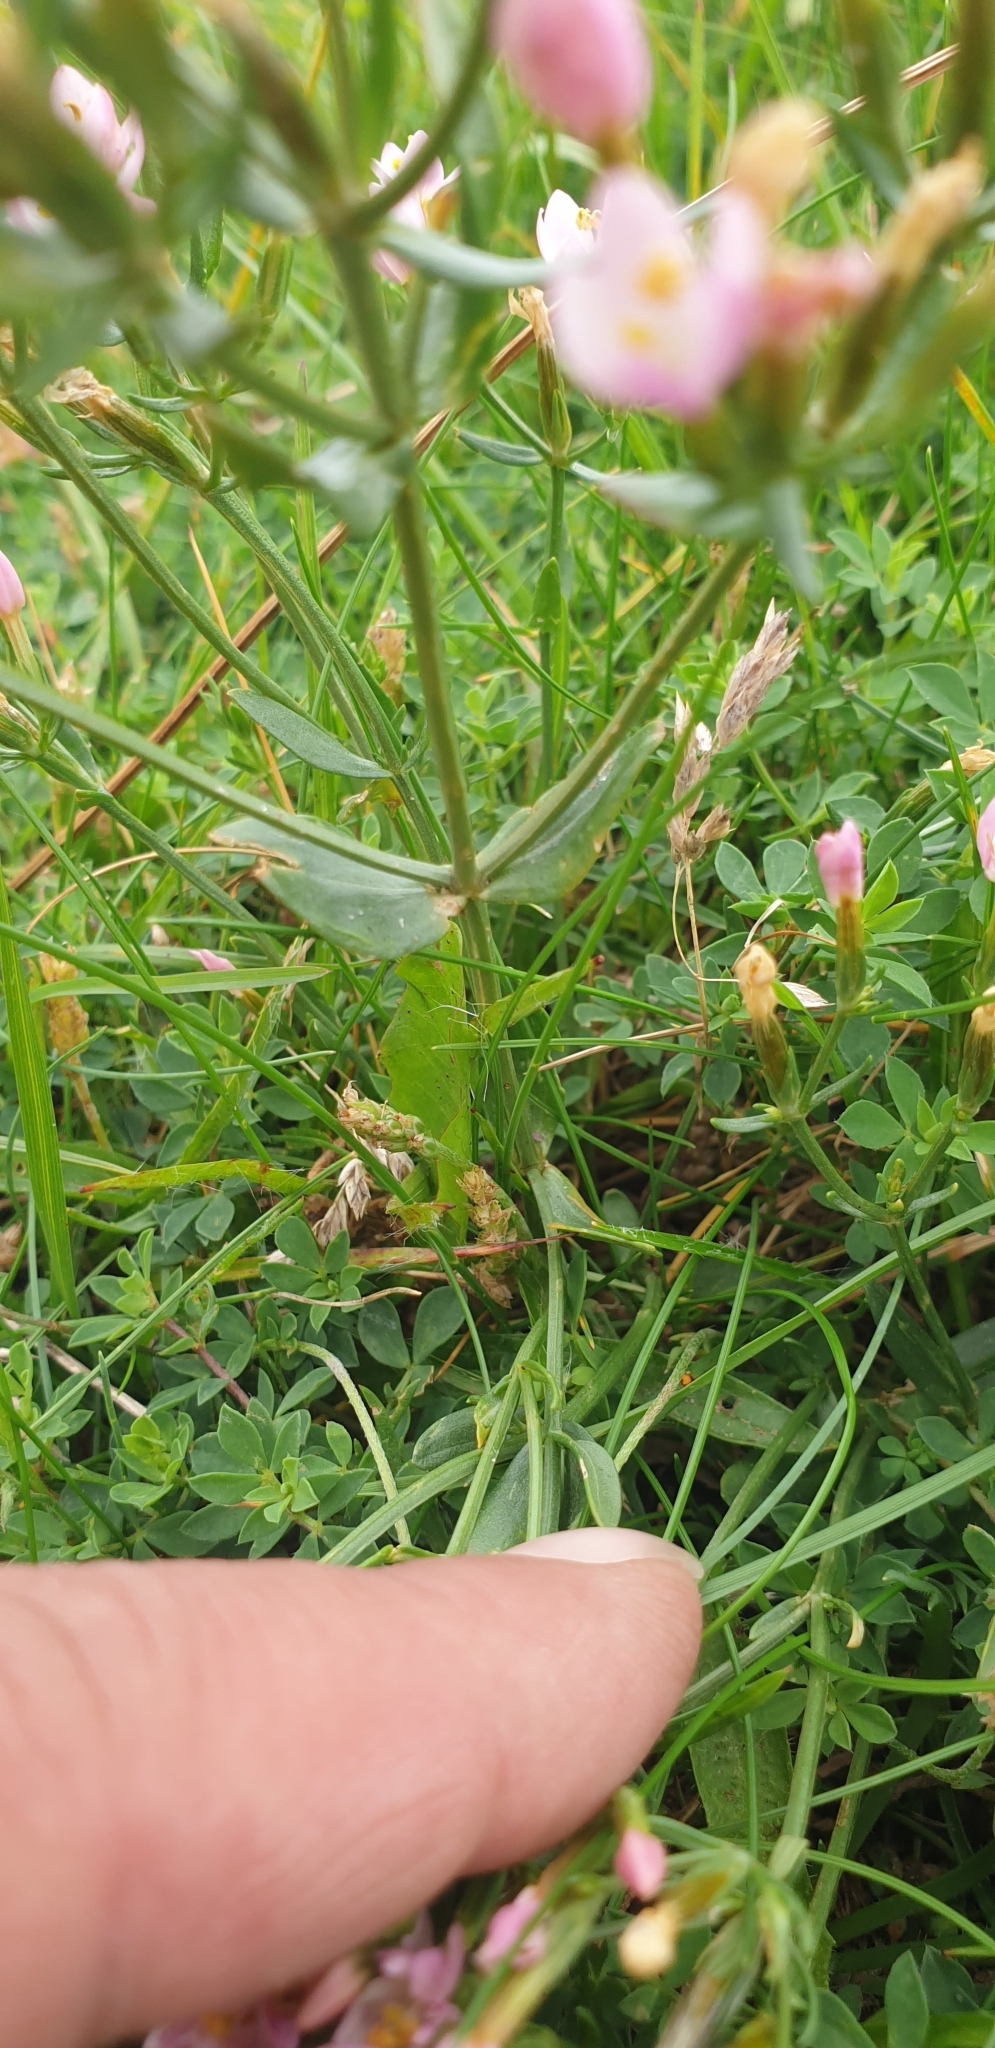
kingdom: Plantae
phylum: Tracheophyta
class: Magnoliopsida
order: Gentianales
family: Gentianaceae
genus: Centaurium
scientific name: Centaurium erythraea
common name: Common centaury
